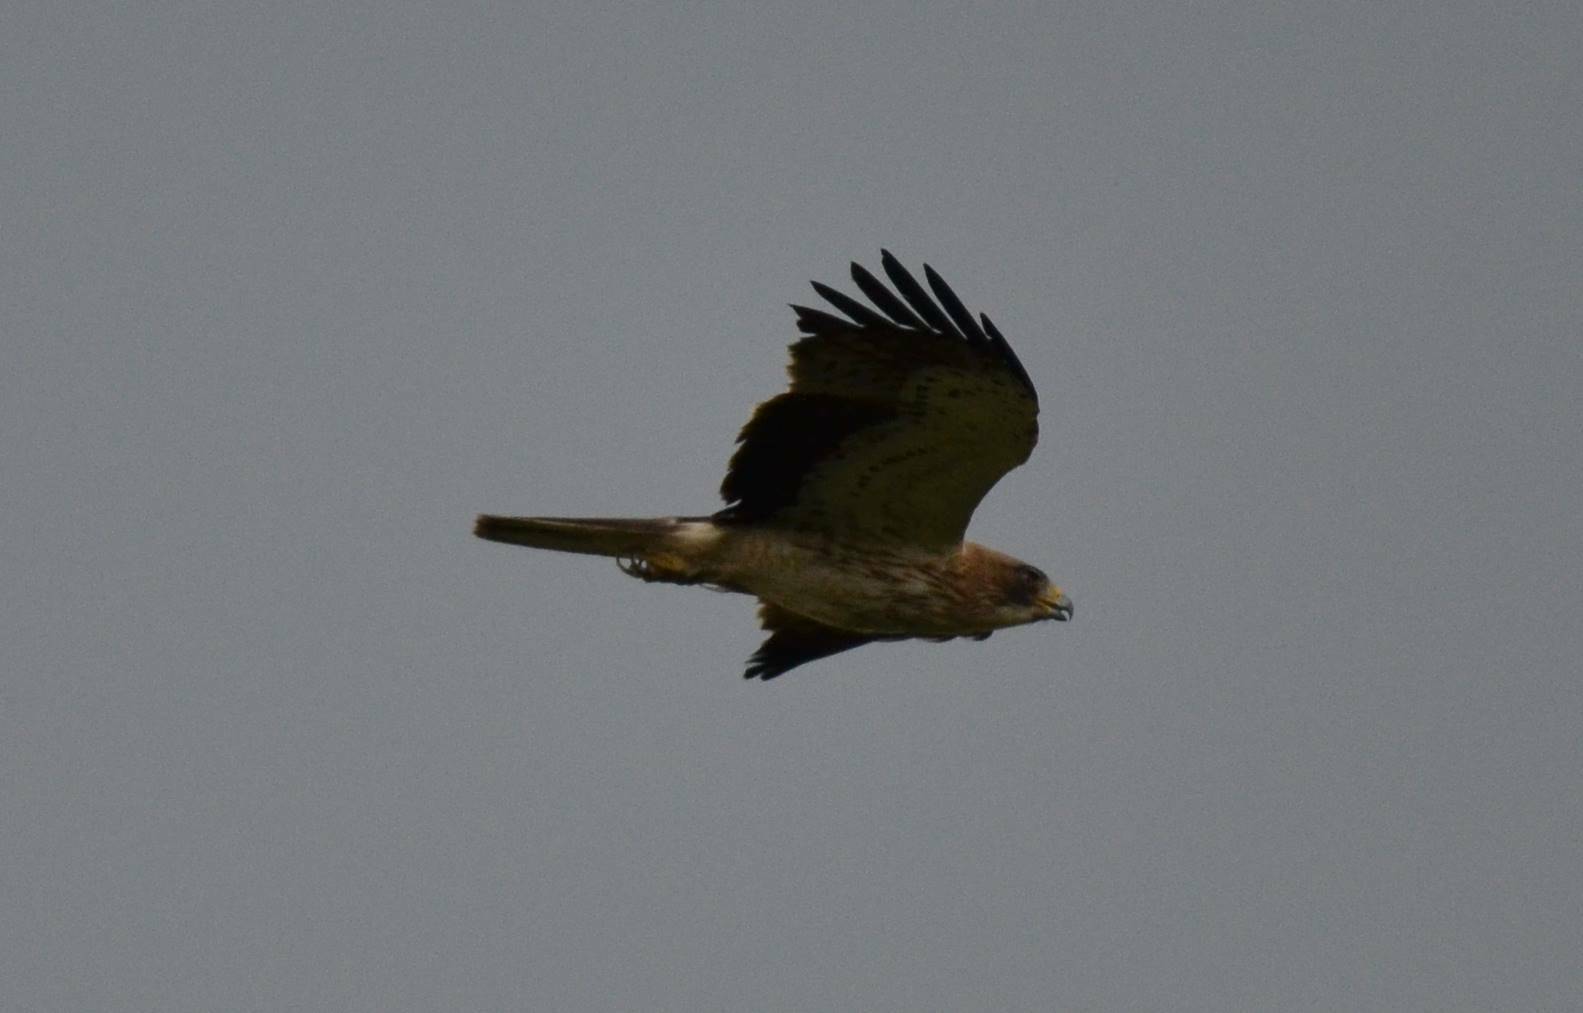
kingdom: Animalia
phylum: Chordata
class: Aves
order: Accipitriformes
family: Accipitridae
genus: Hieraaetus
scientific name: Hieraaetus pennatus
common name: Booted eagle
